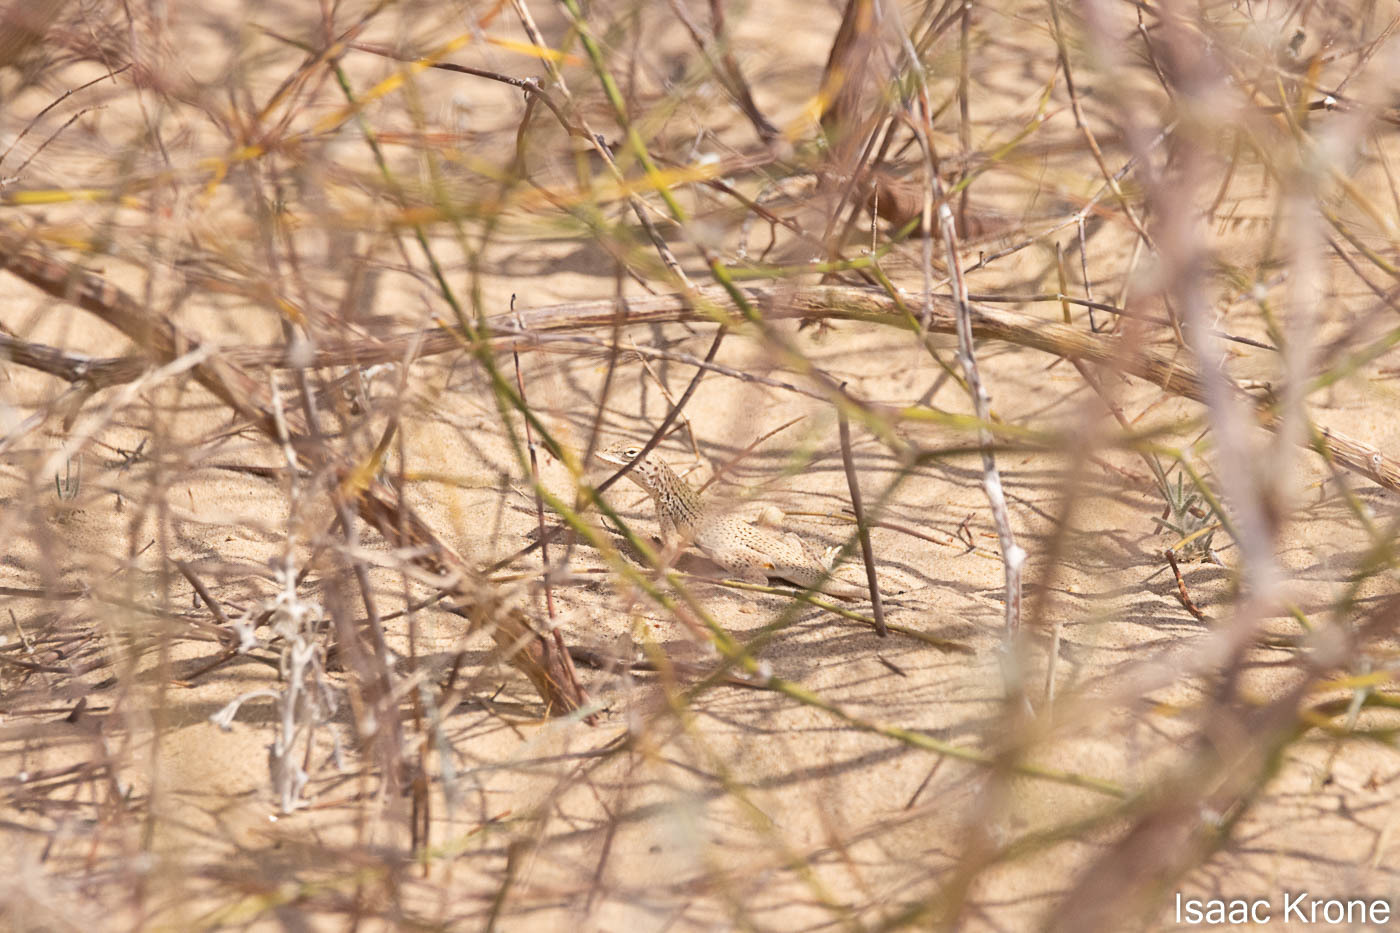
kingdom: Animalia
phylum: Chordata
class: Squamata
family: Phrynosomatidae
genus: Uma
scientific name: Uma notata
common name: Colorado desert fringe-toed lizard
